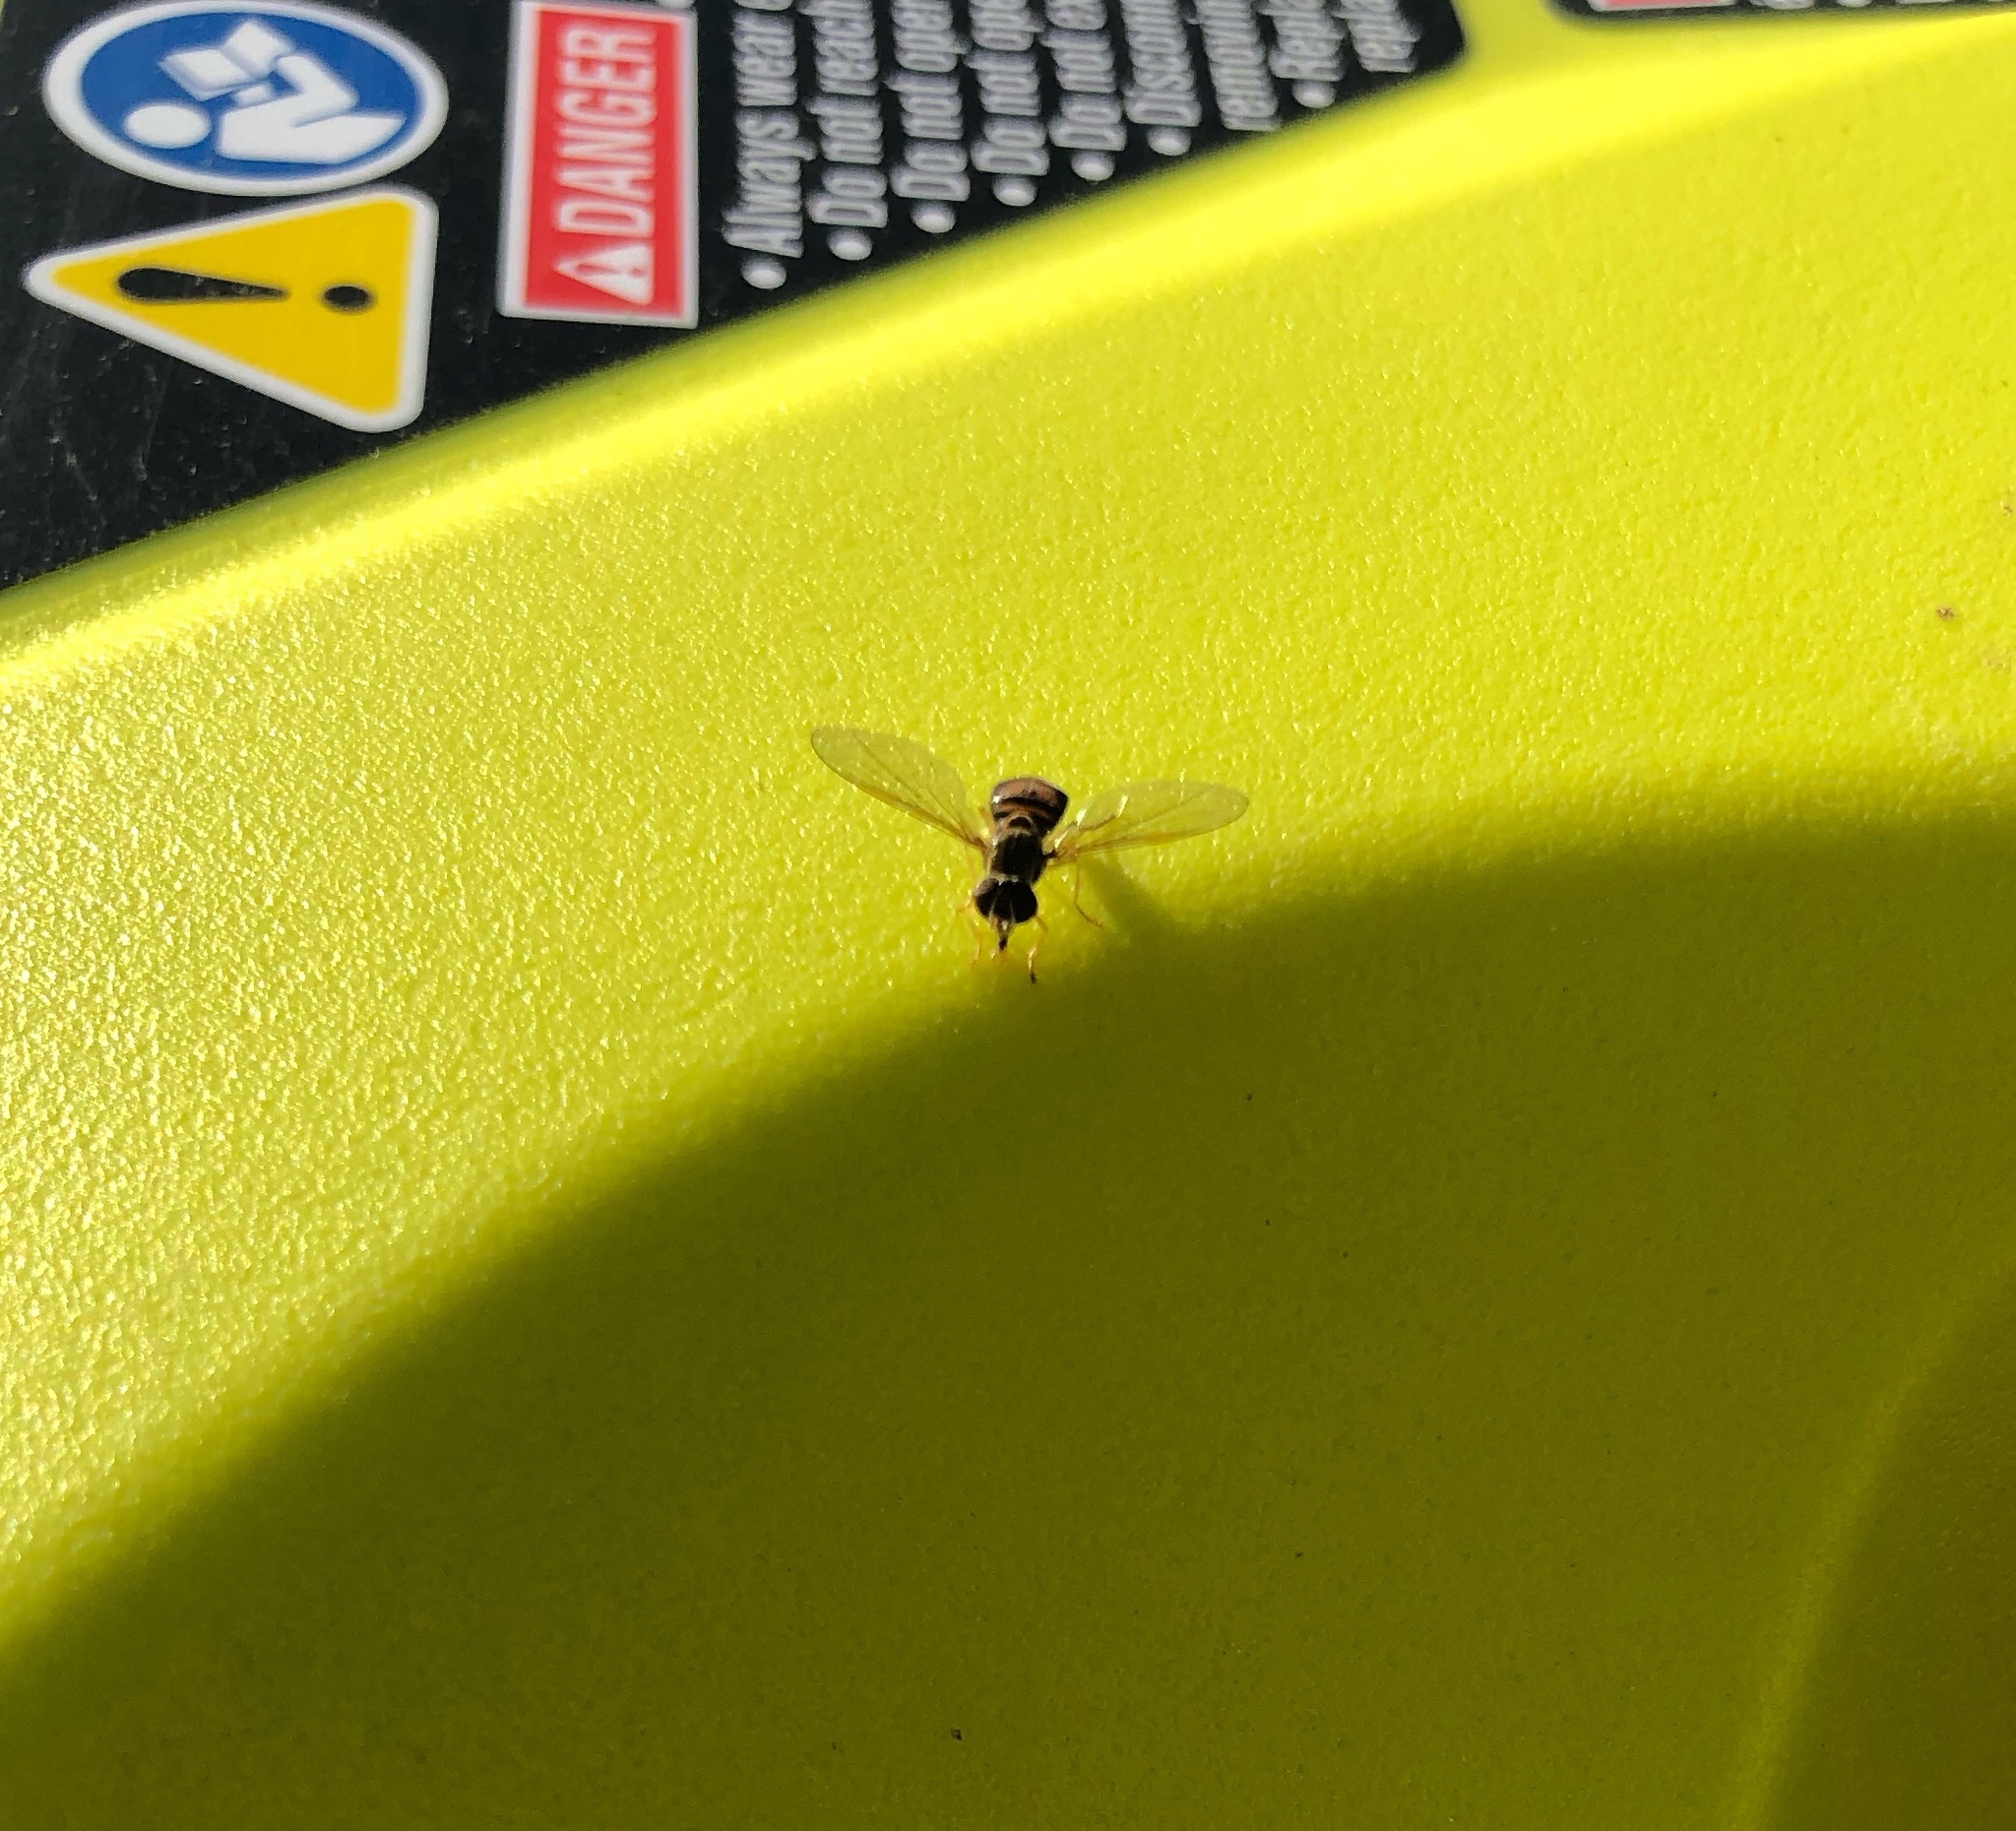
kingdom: Animalia
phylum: Arthropoda
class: Insecta
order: Diptera
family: Syrphidae
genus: Toxomerus
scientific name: Toxomerus marginatus
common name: Syrphid fly
